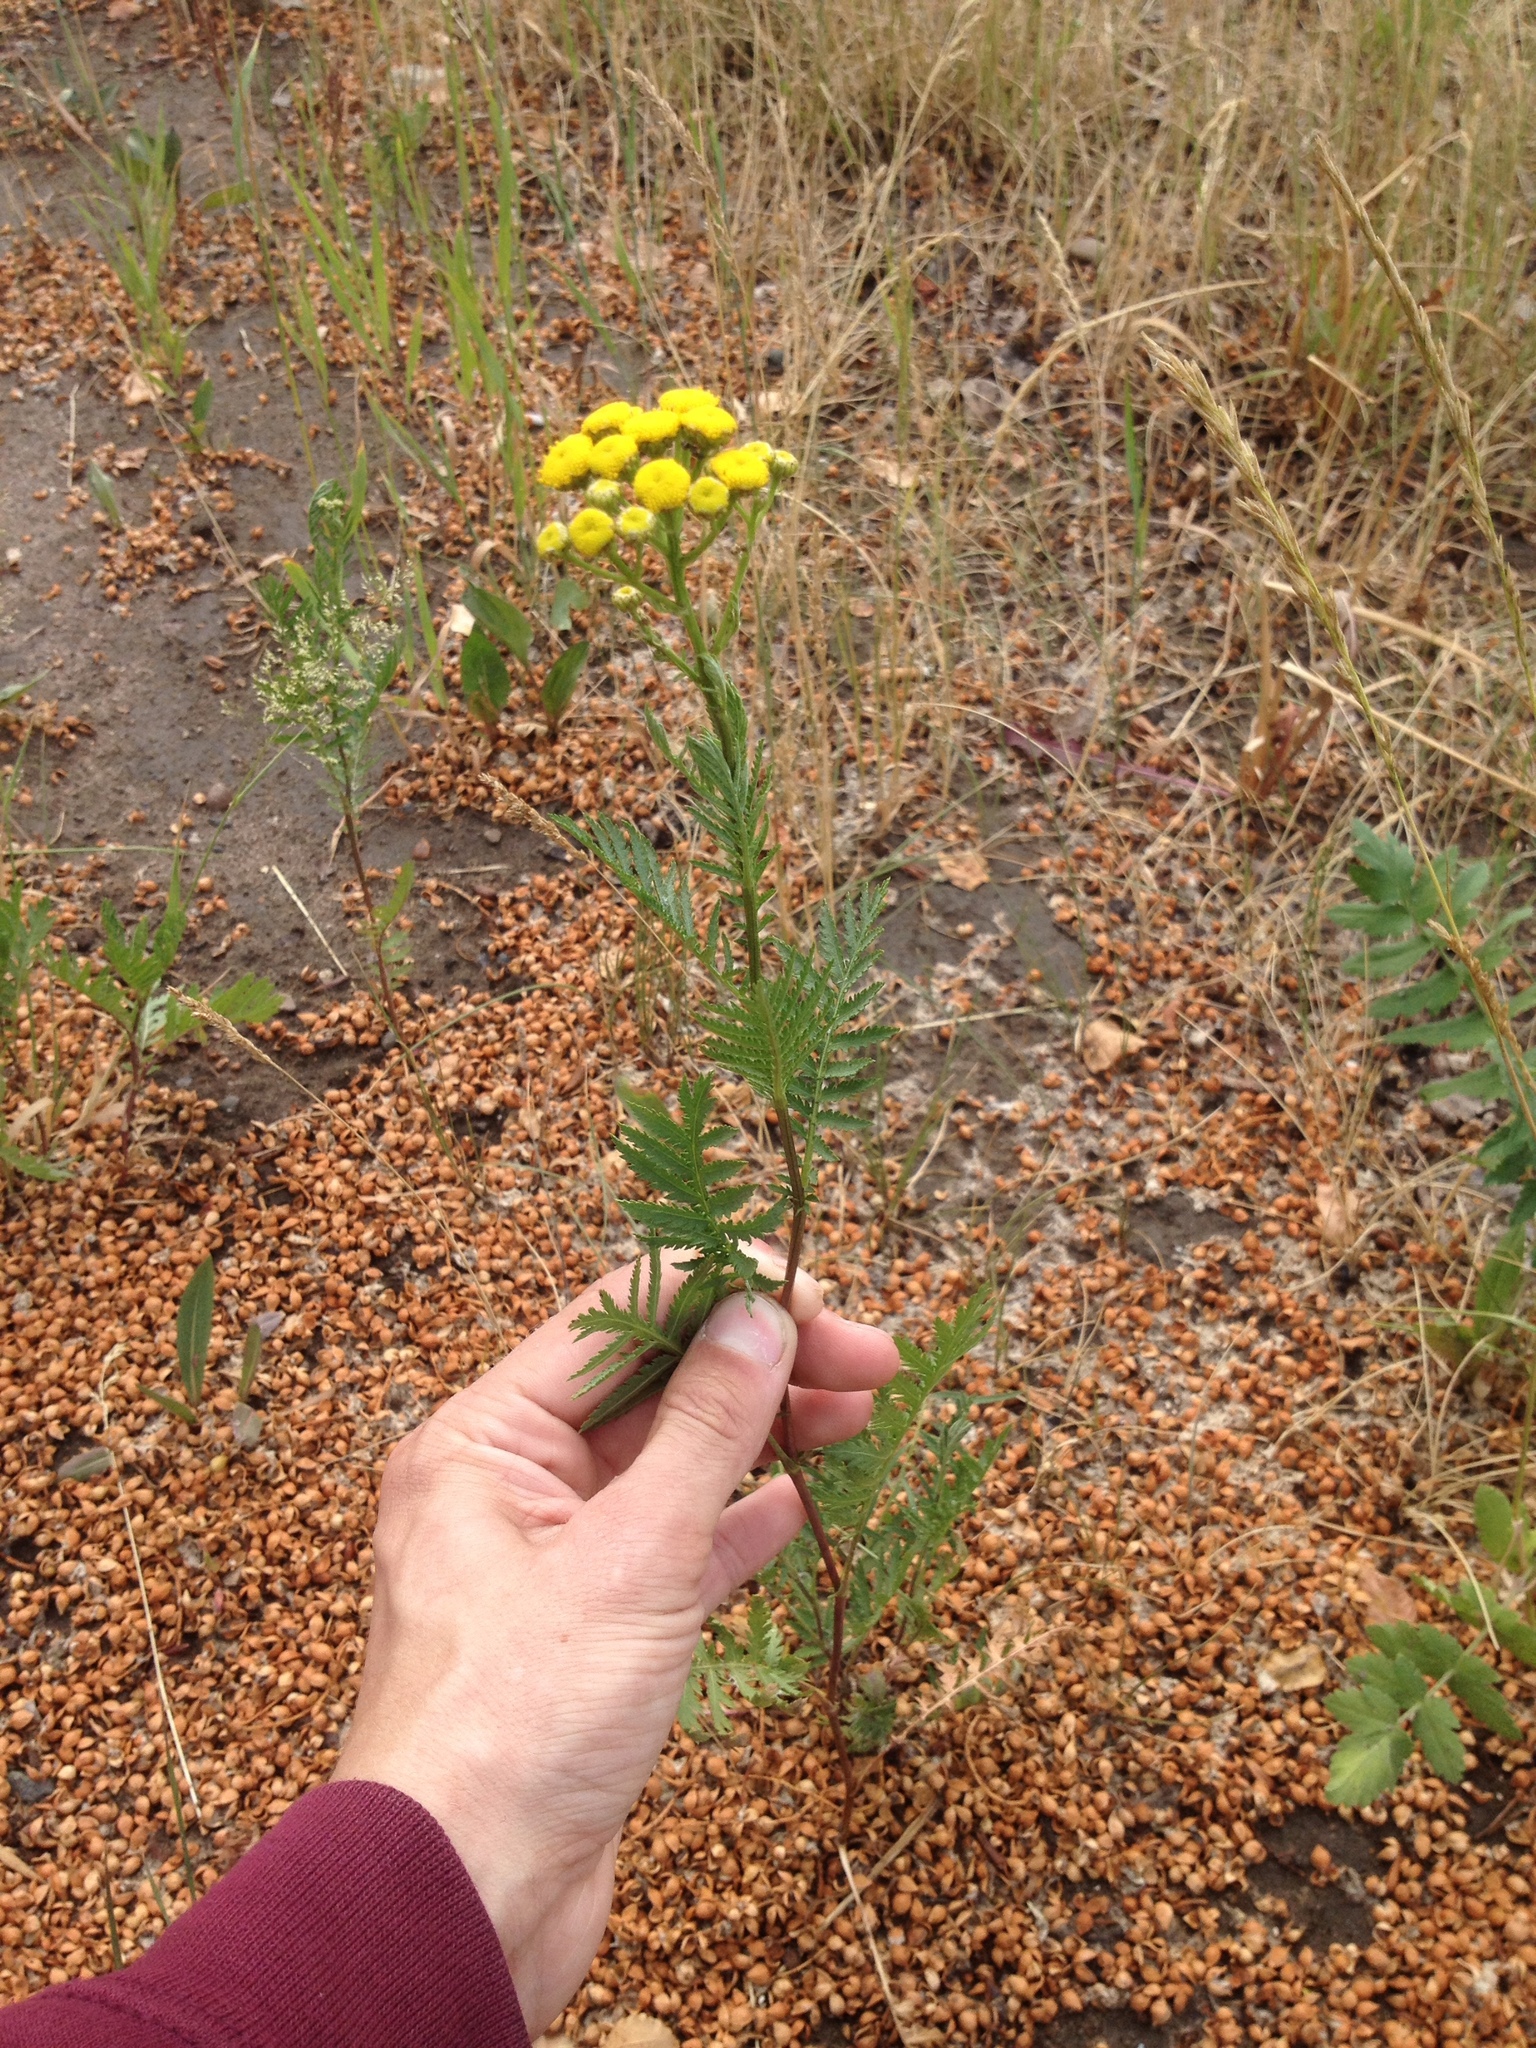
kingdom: Plantae
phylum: Tracheophyta
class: Magnoliopsida
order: Asterales
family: Asteraceae
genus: Tanacetum
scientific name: Tanacetum vulgare
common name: Common tansy
